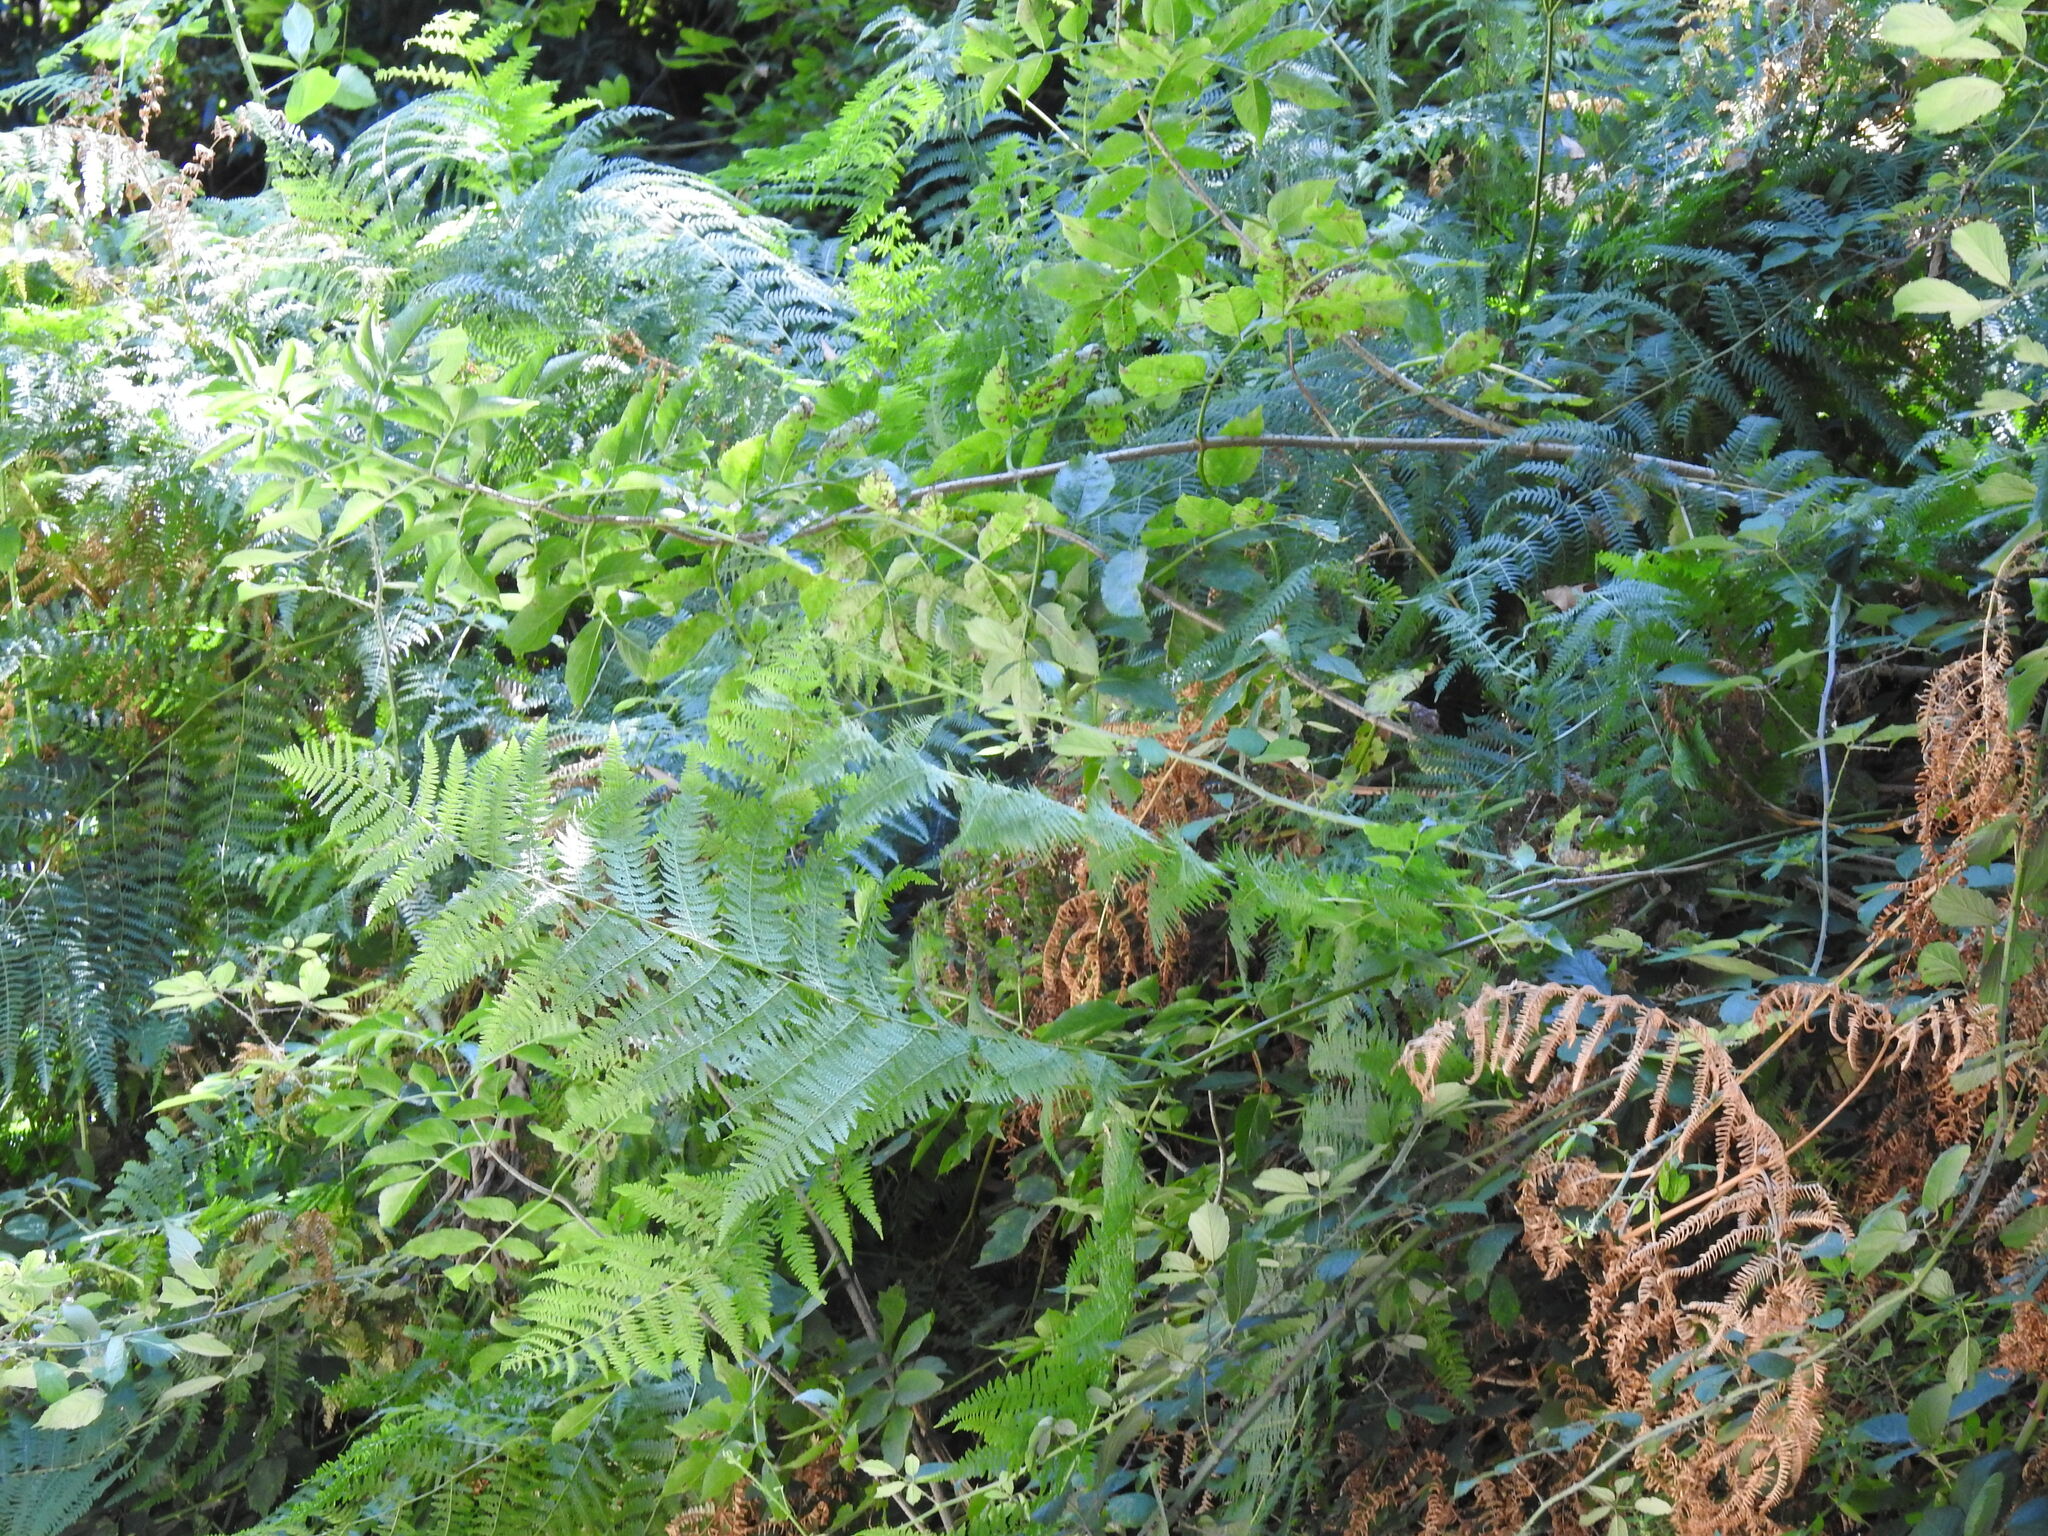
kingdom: Plantae
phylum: Tracheophyta
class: Polypodiopsida
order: Polypodiales
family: Dennstaedtiaceae
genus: Pteridium
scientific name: Pteridium aquilinum
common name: Bracken
